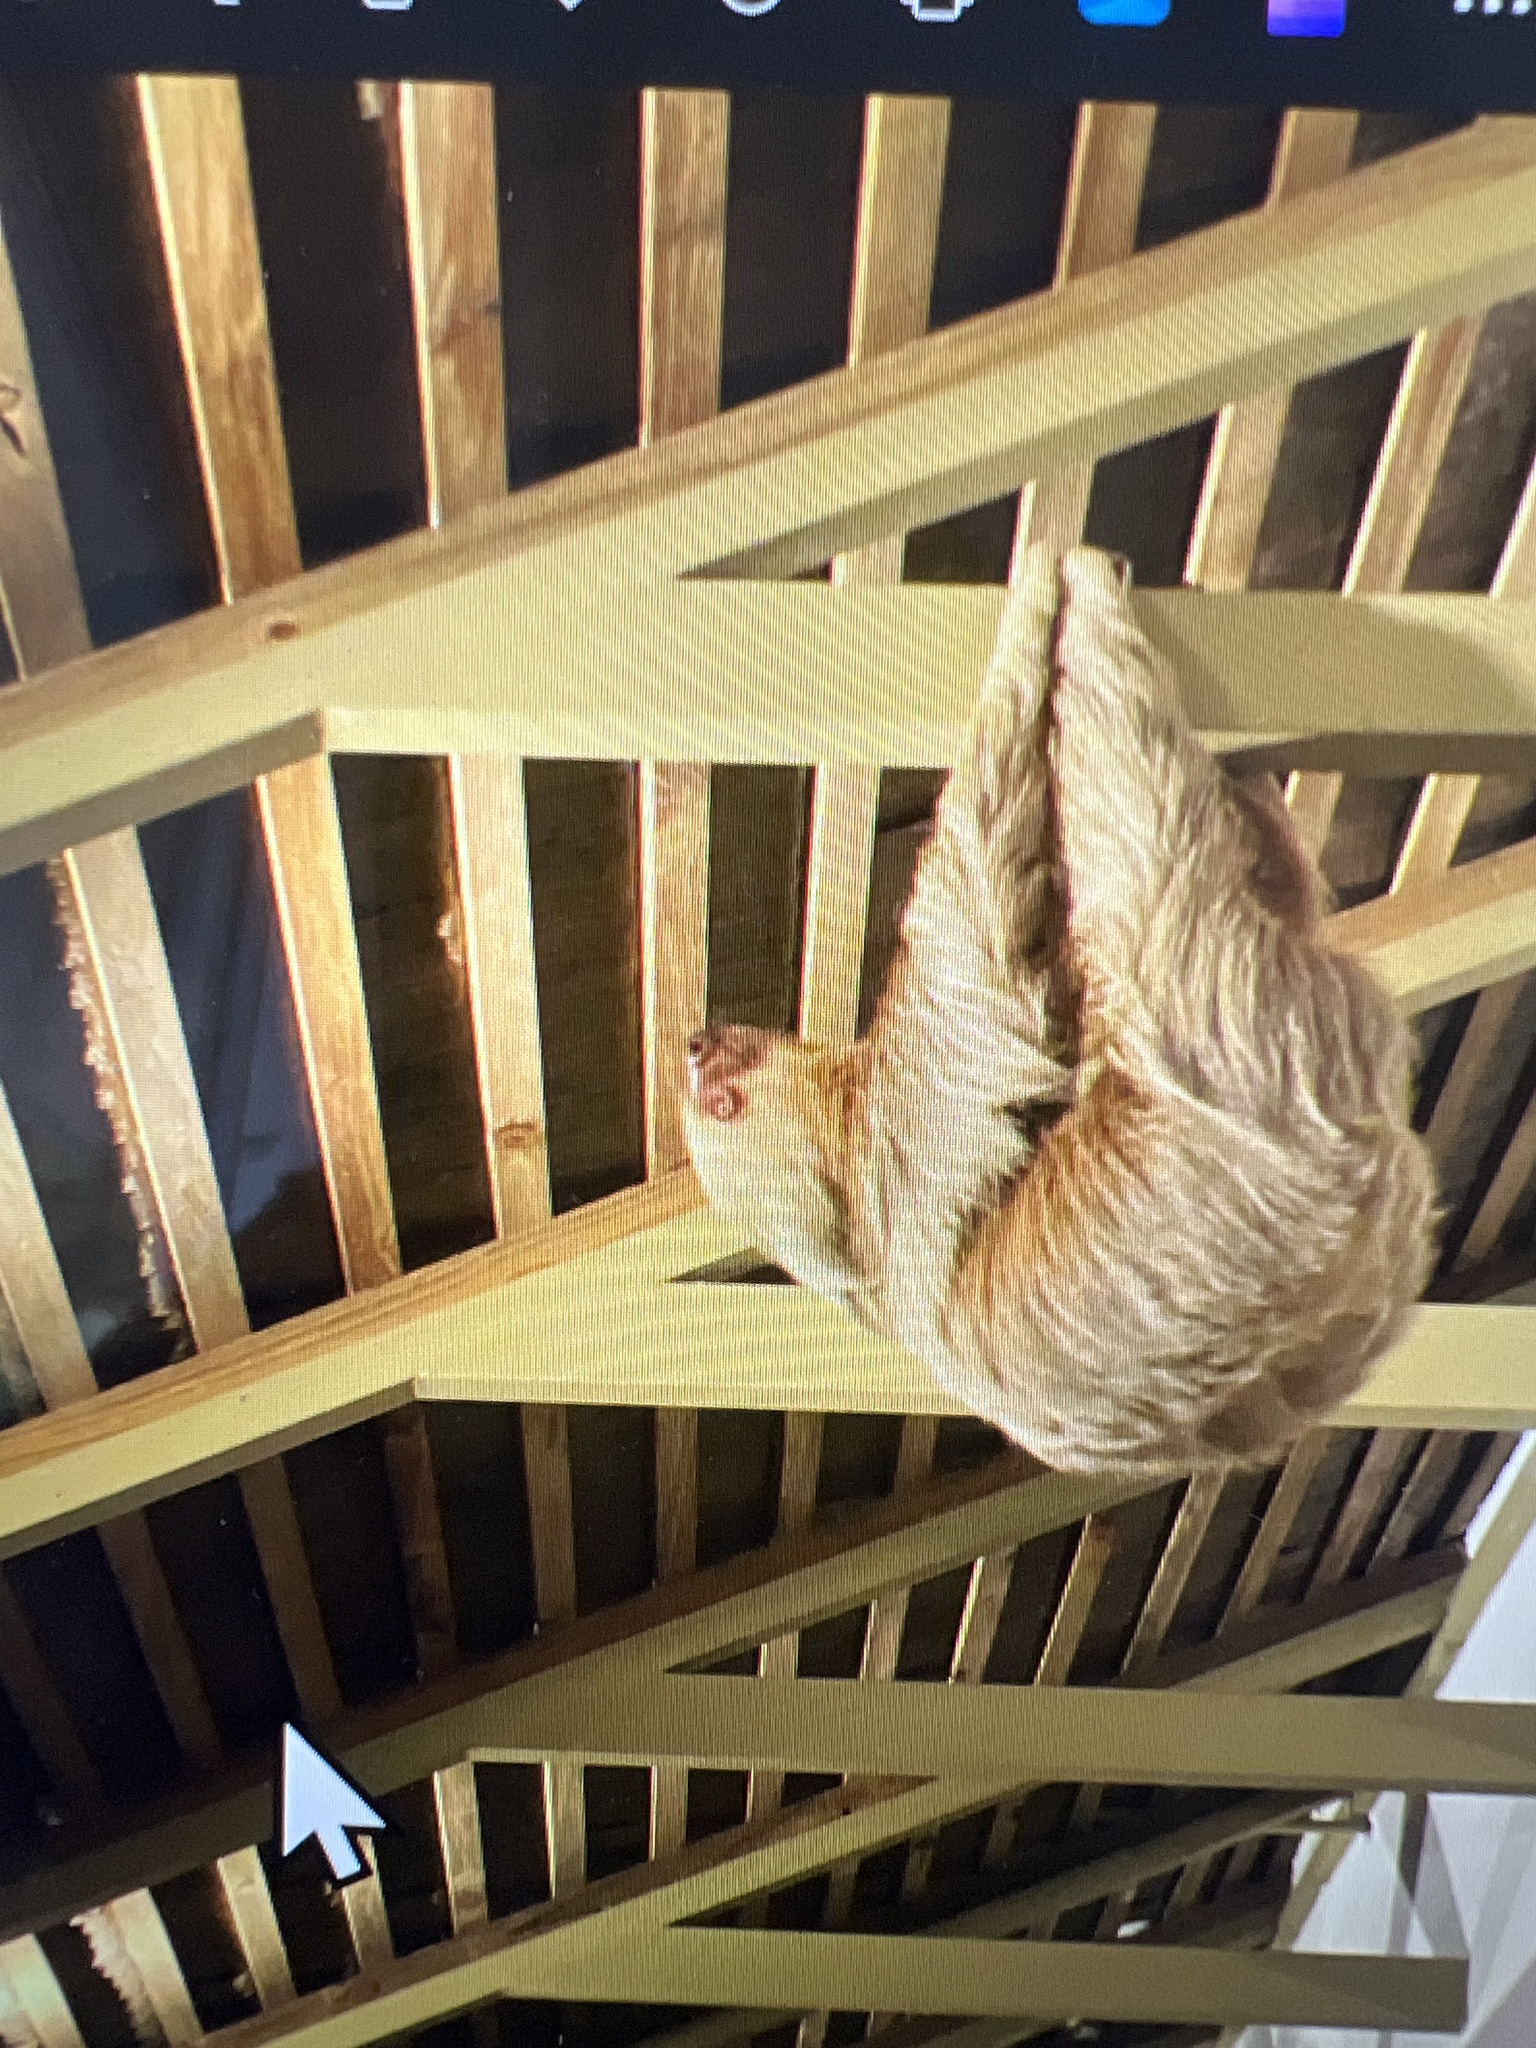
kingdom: Animalia
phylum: Chordata
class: Mammalia
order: Pilosa
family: Megalonychidae
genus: Choloepus
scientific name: Choloepus hoffmanni
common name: Hoffmann's two-toed sloth
